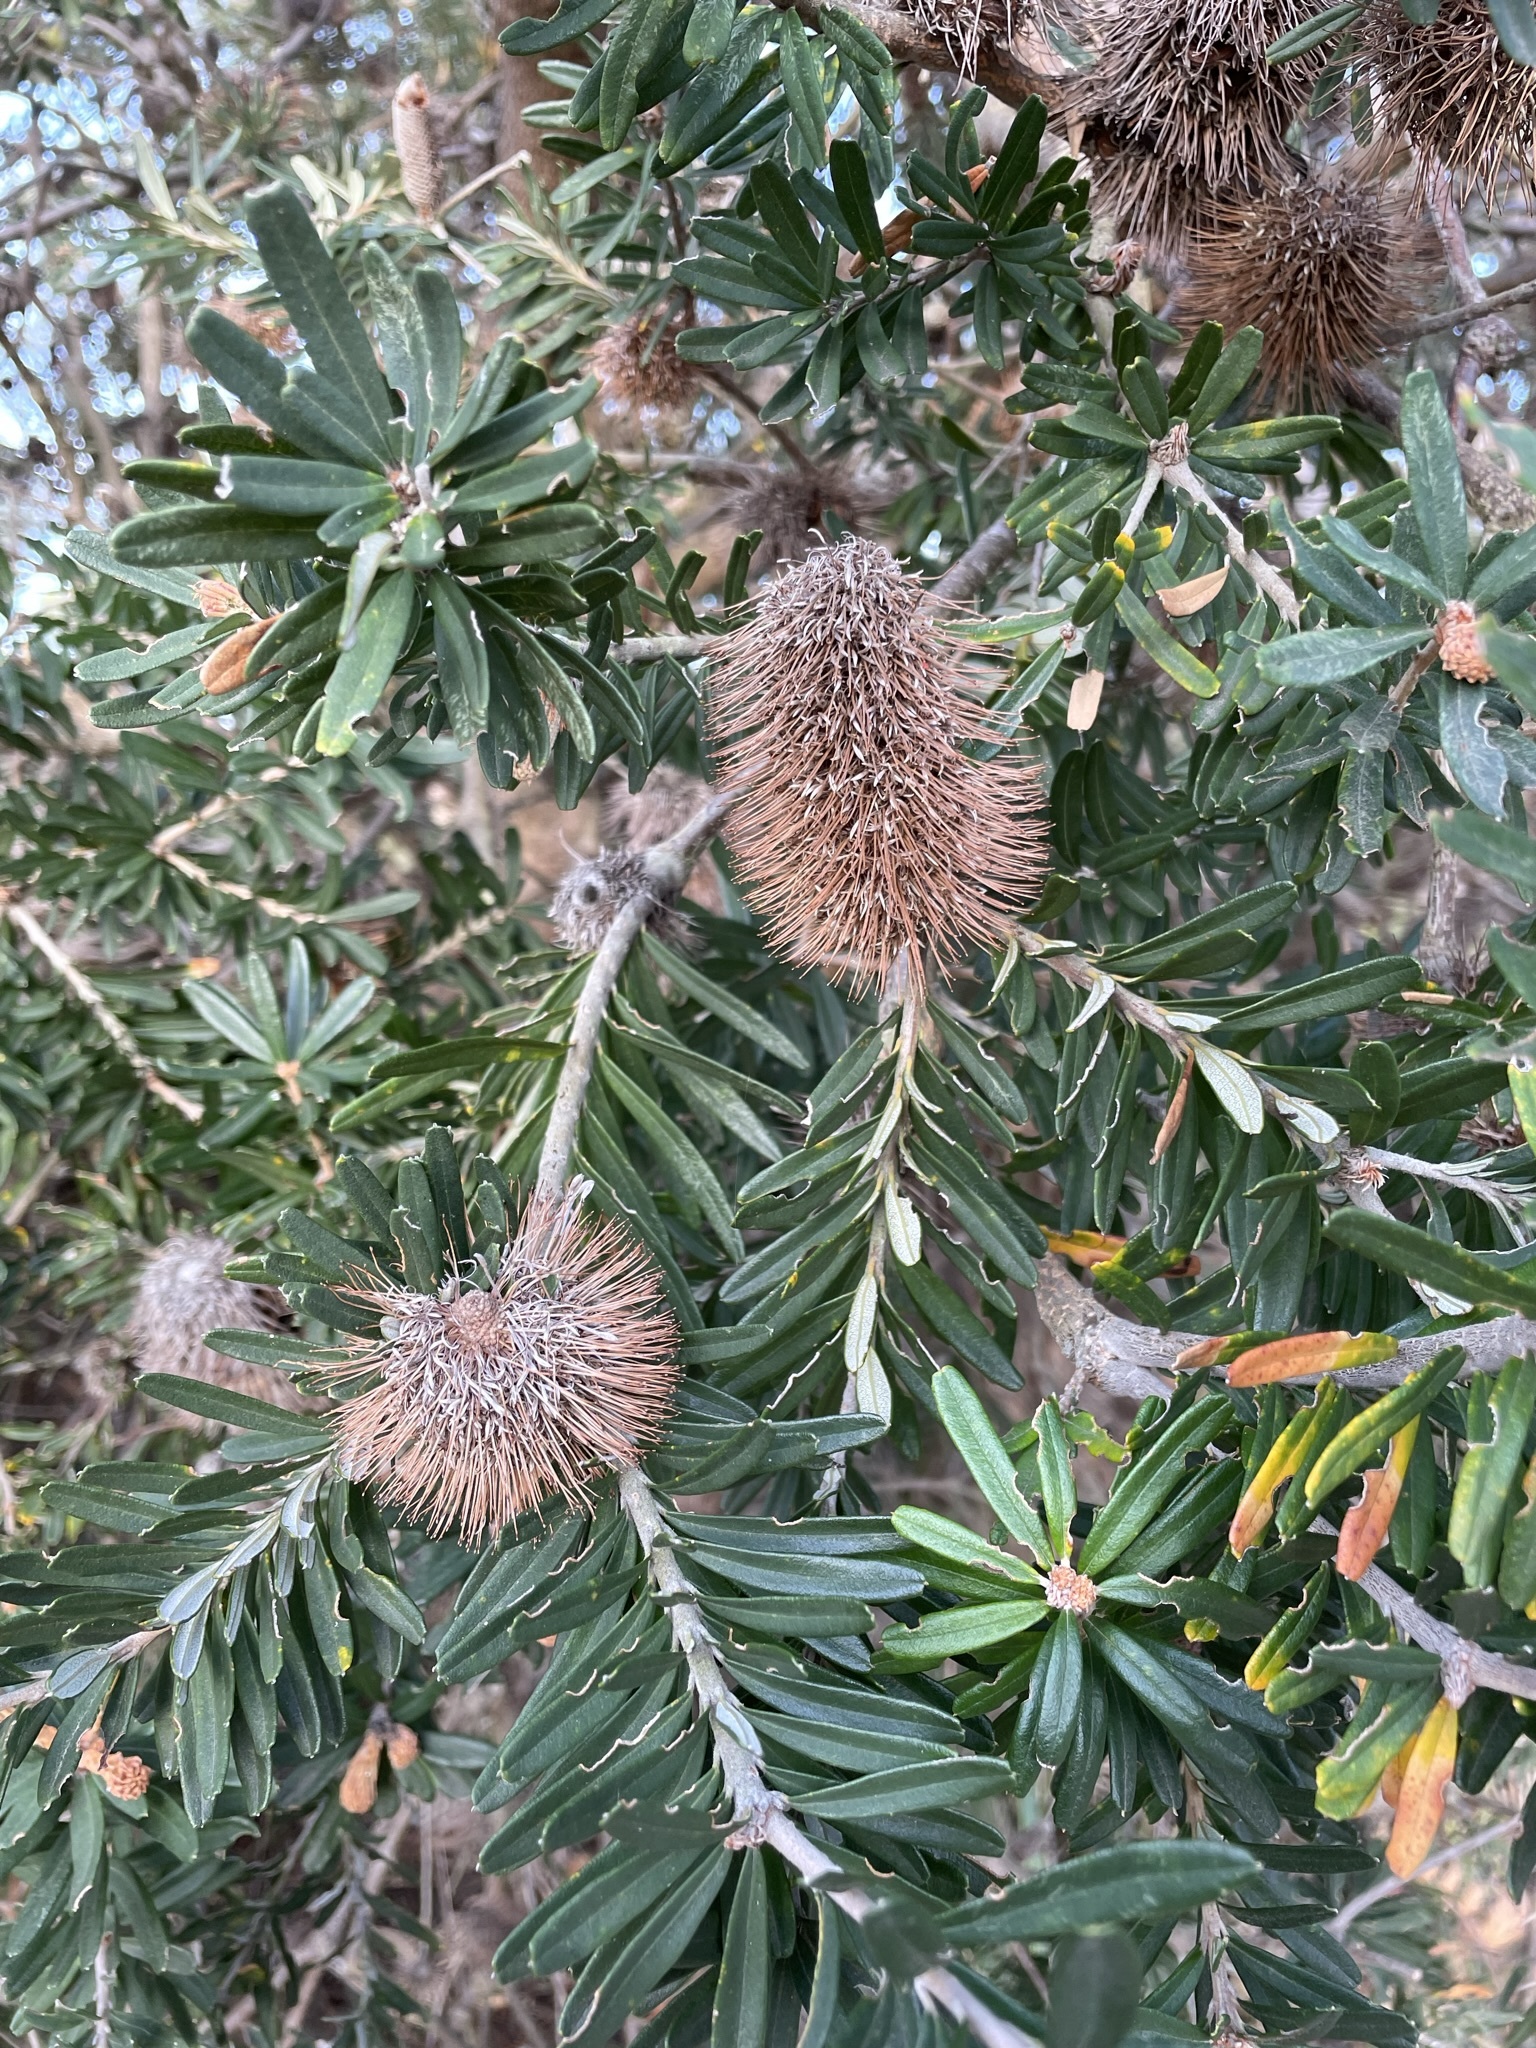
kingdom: Plantae
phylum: Tracheophyta
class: Magnoliopsida
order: Proteales
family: Proteaceae
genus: Banksia
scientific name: Banksia marginata
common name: Silver banksia
